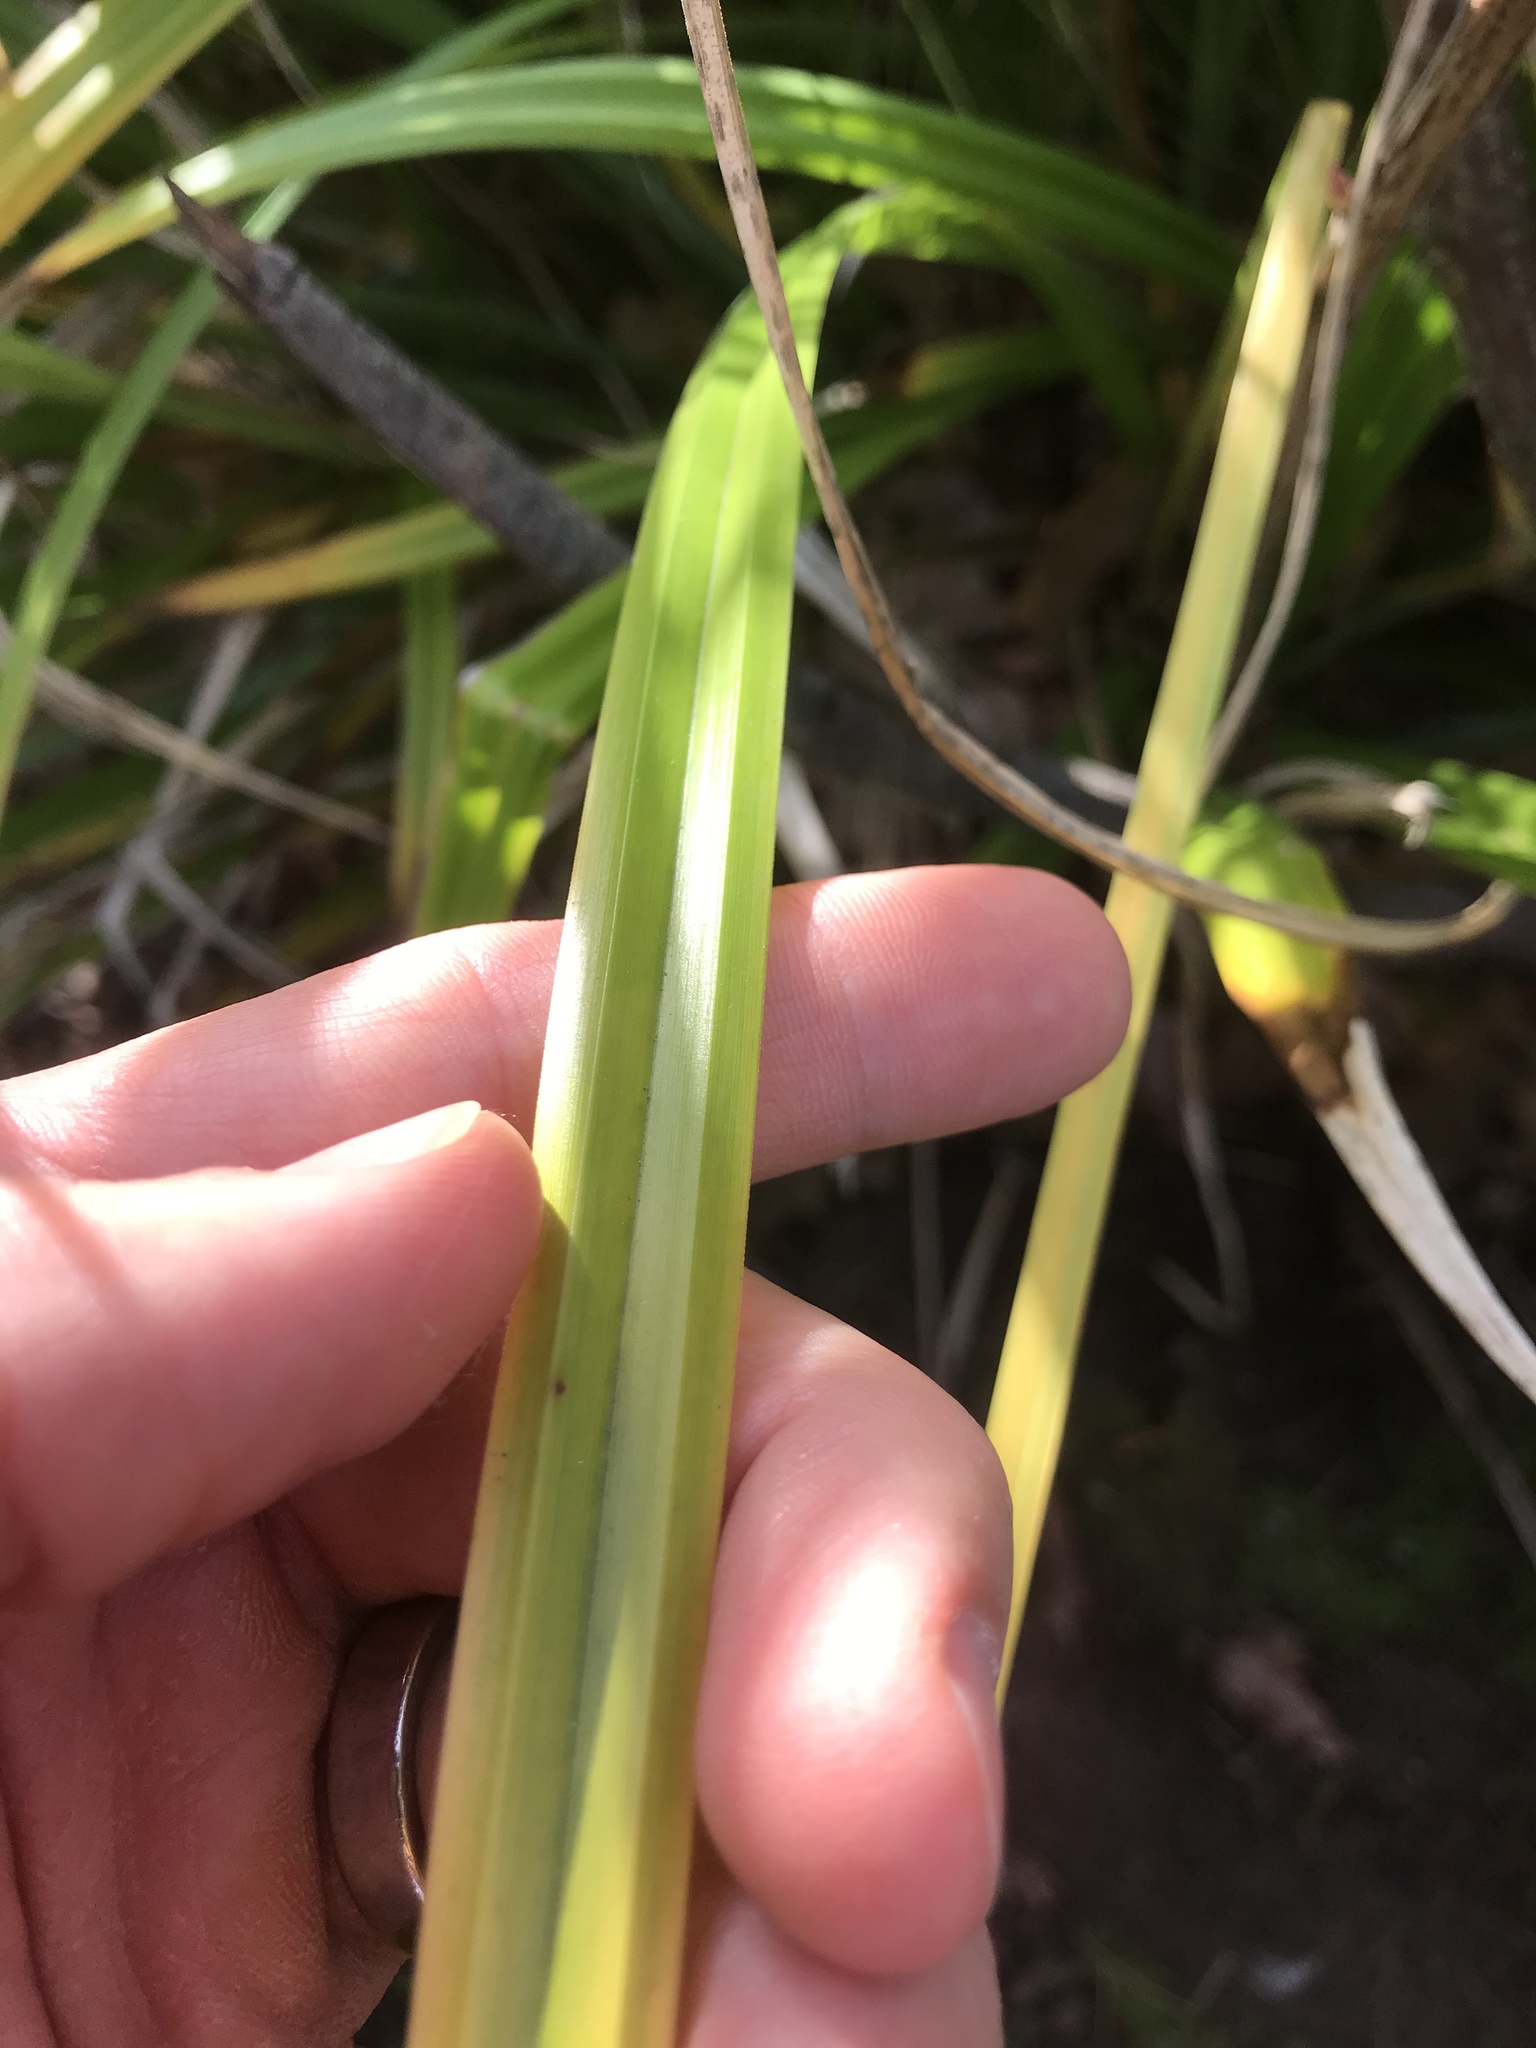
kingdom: Plantae
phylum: Tracheophyta
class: Liliopsida
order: Poales
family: Cyperaceae
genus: Carex
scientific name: Carex pendula
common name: Pendulous sedge
